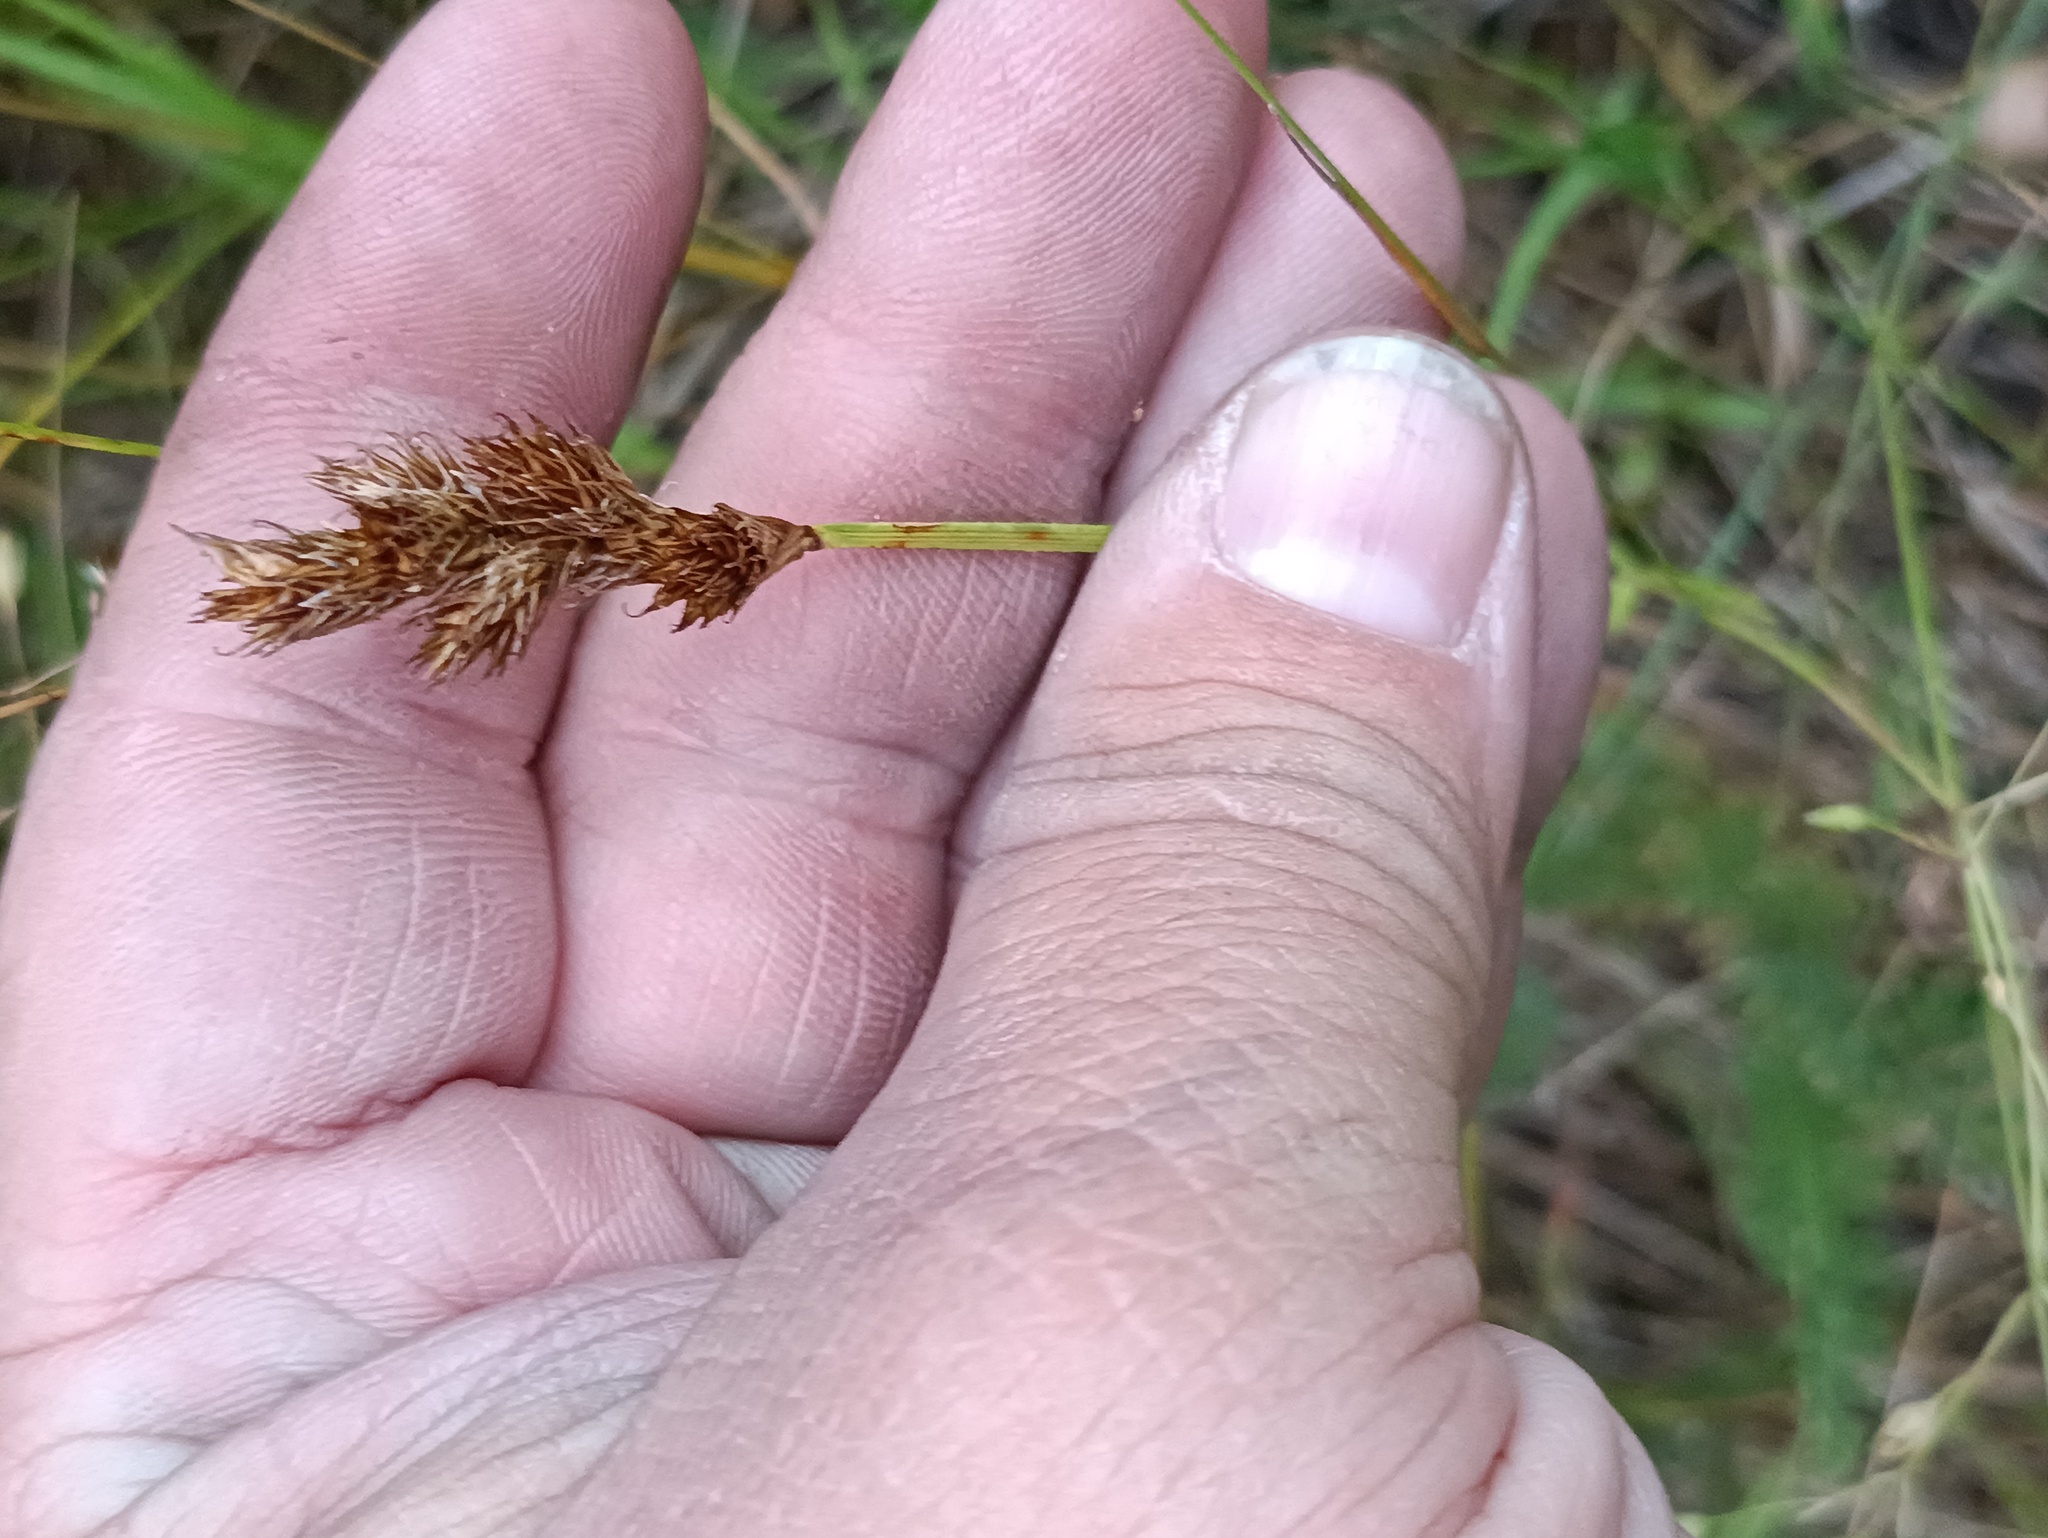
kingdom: Plantae
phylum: Tracheophyta
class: Liliopsida
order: Poales
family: Cyperaceae
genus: Carex
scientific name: Carex leporina
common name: Oval sedge
